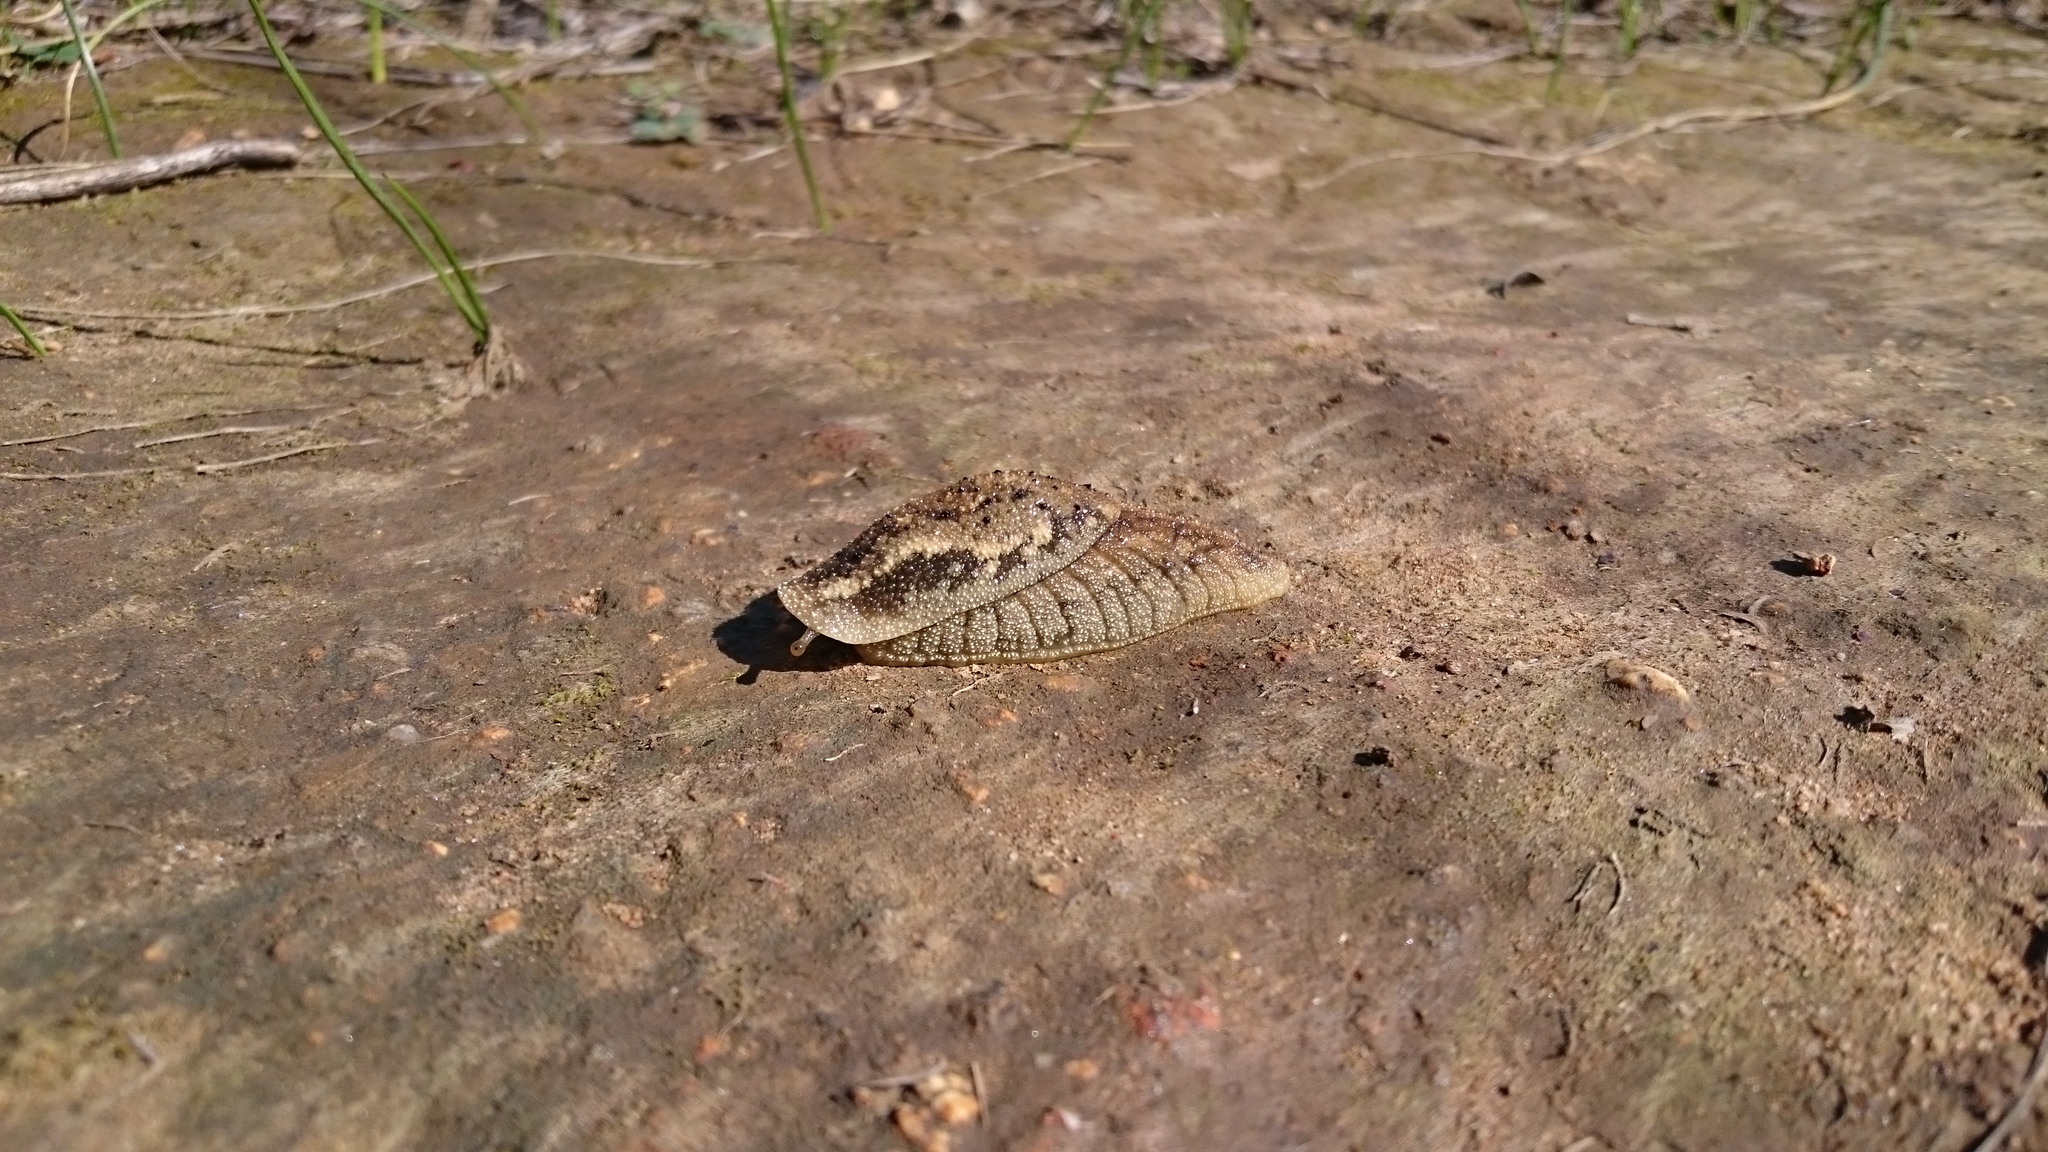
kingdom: Animalia
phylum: Mollusca
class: Gastropoda
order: Stylommatophora
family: Oopeltidae
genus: Oopelta
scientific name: Oopelta nigropunctata
